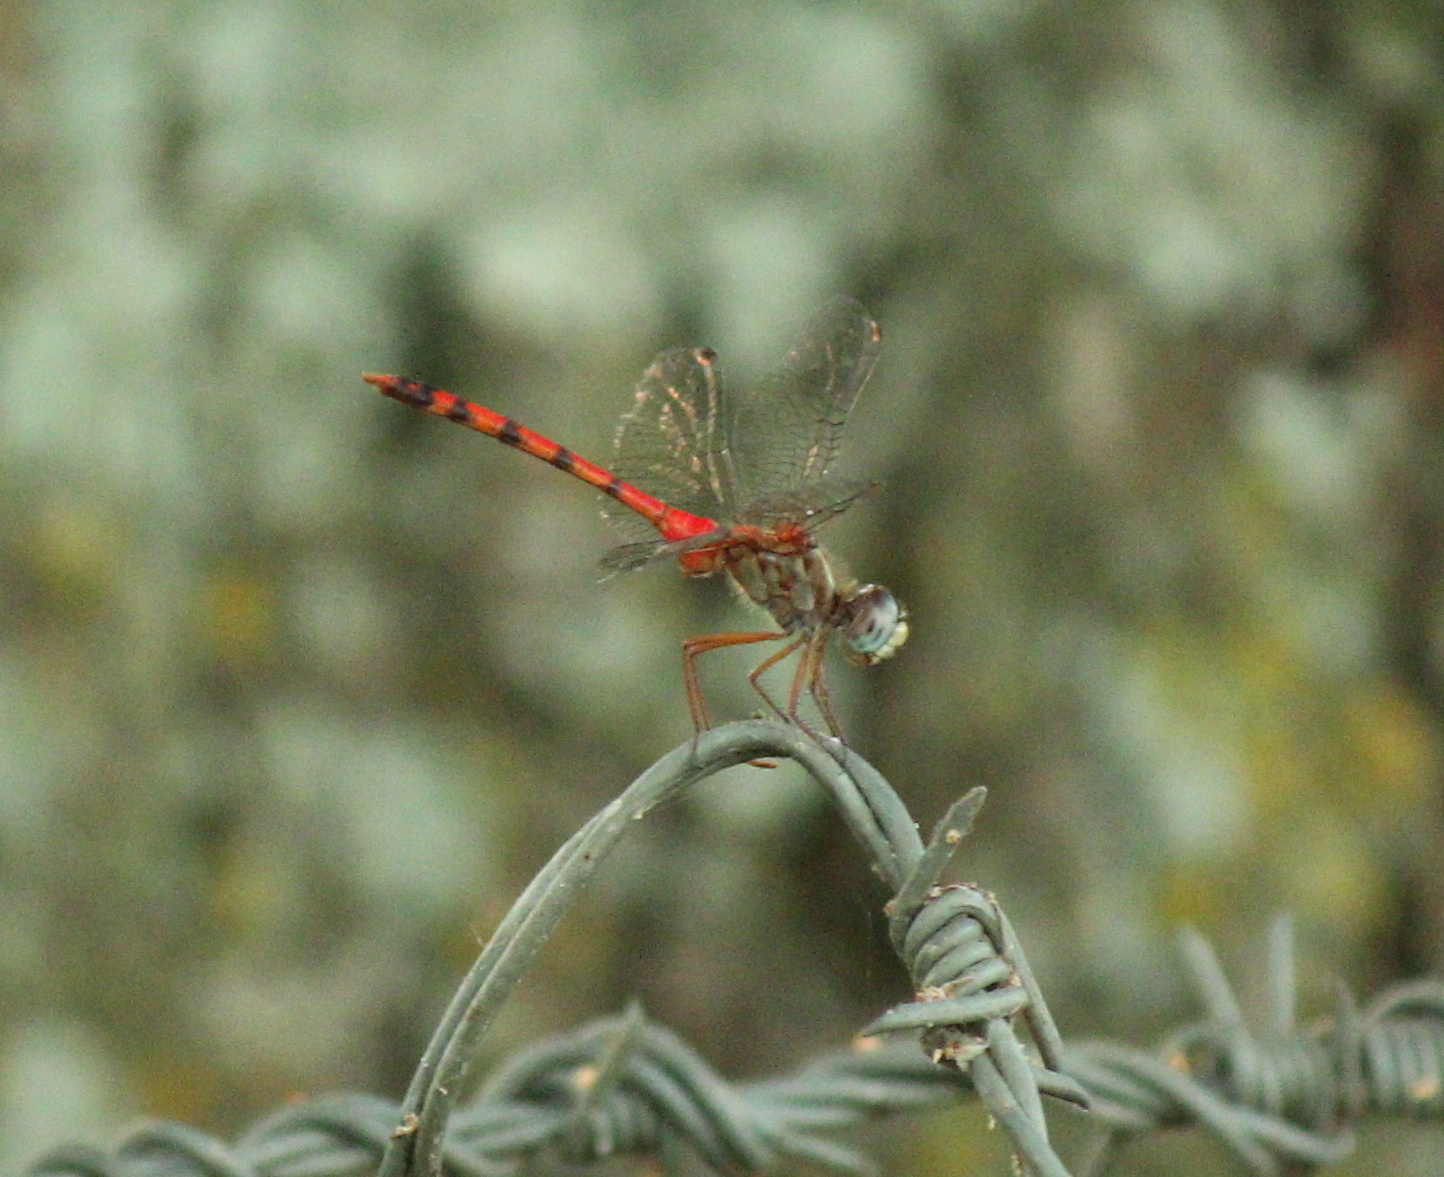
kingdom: Animalia
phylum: Arthropoda
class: Insecta
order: Odonata
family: Libellulidae
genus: Sympetrum
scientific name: Sympetrum ambiguum
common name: Blue-faced meadowhawk
